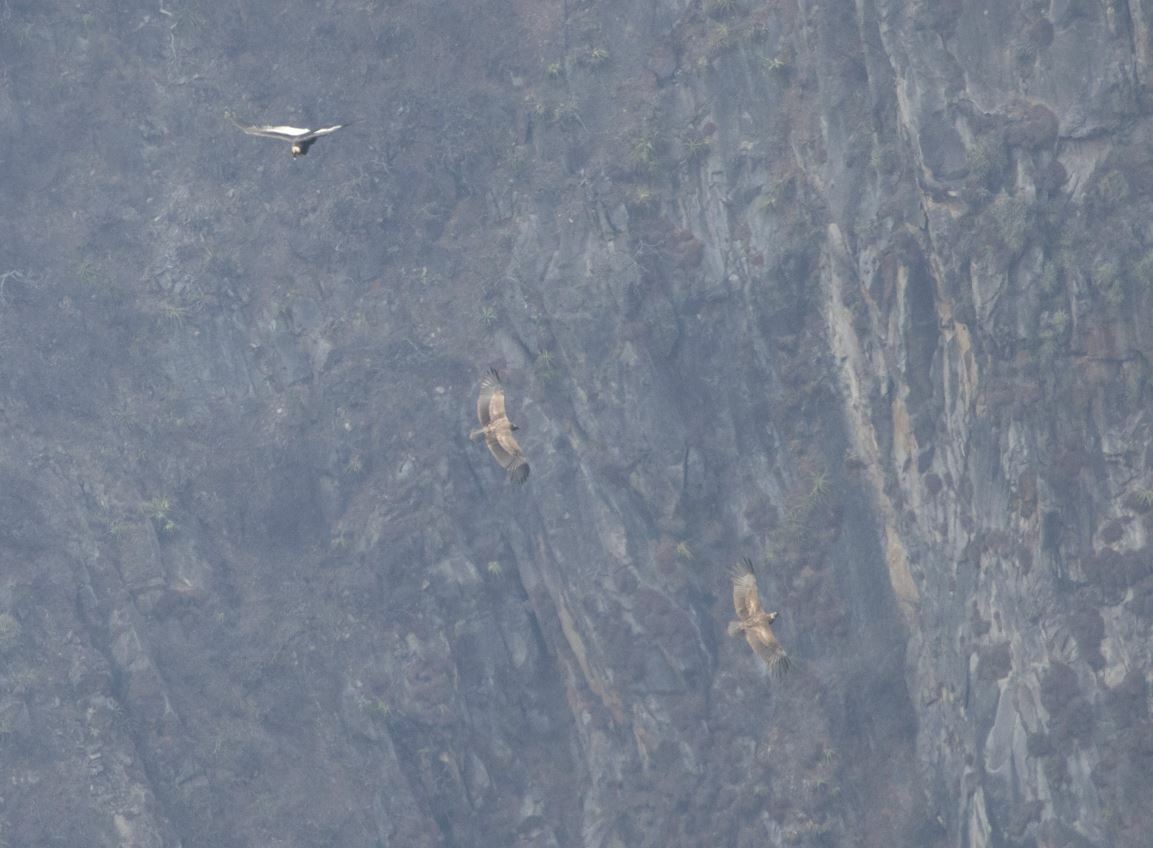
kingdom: Animalia
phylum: Chordata
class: Aves
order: Accipitriformes
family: Cathartidae
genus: Vultur
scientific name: Vultur gryphus
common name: Andean condor
